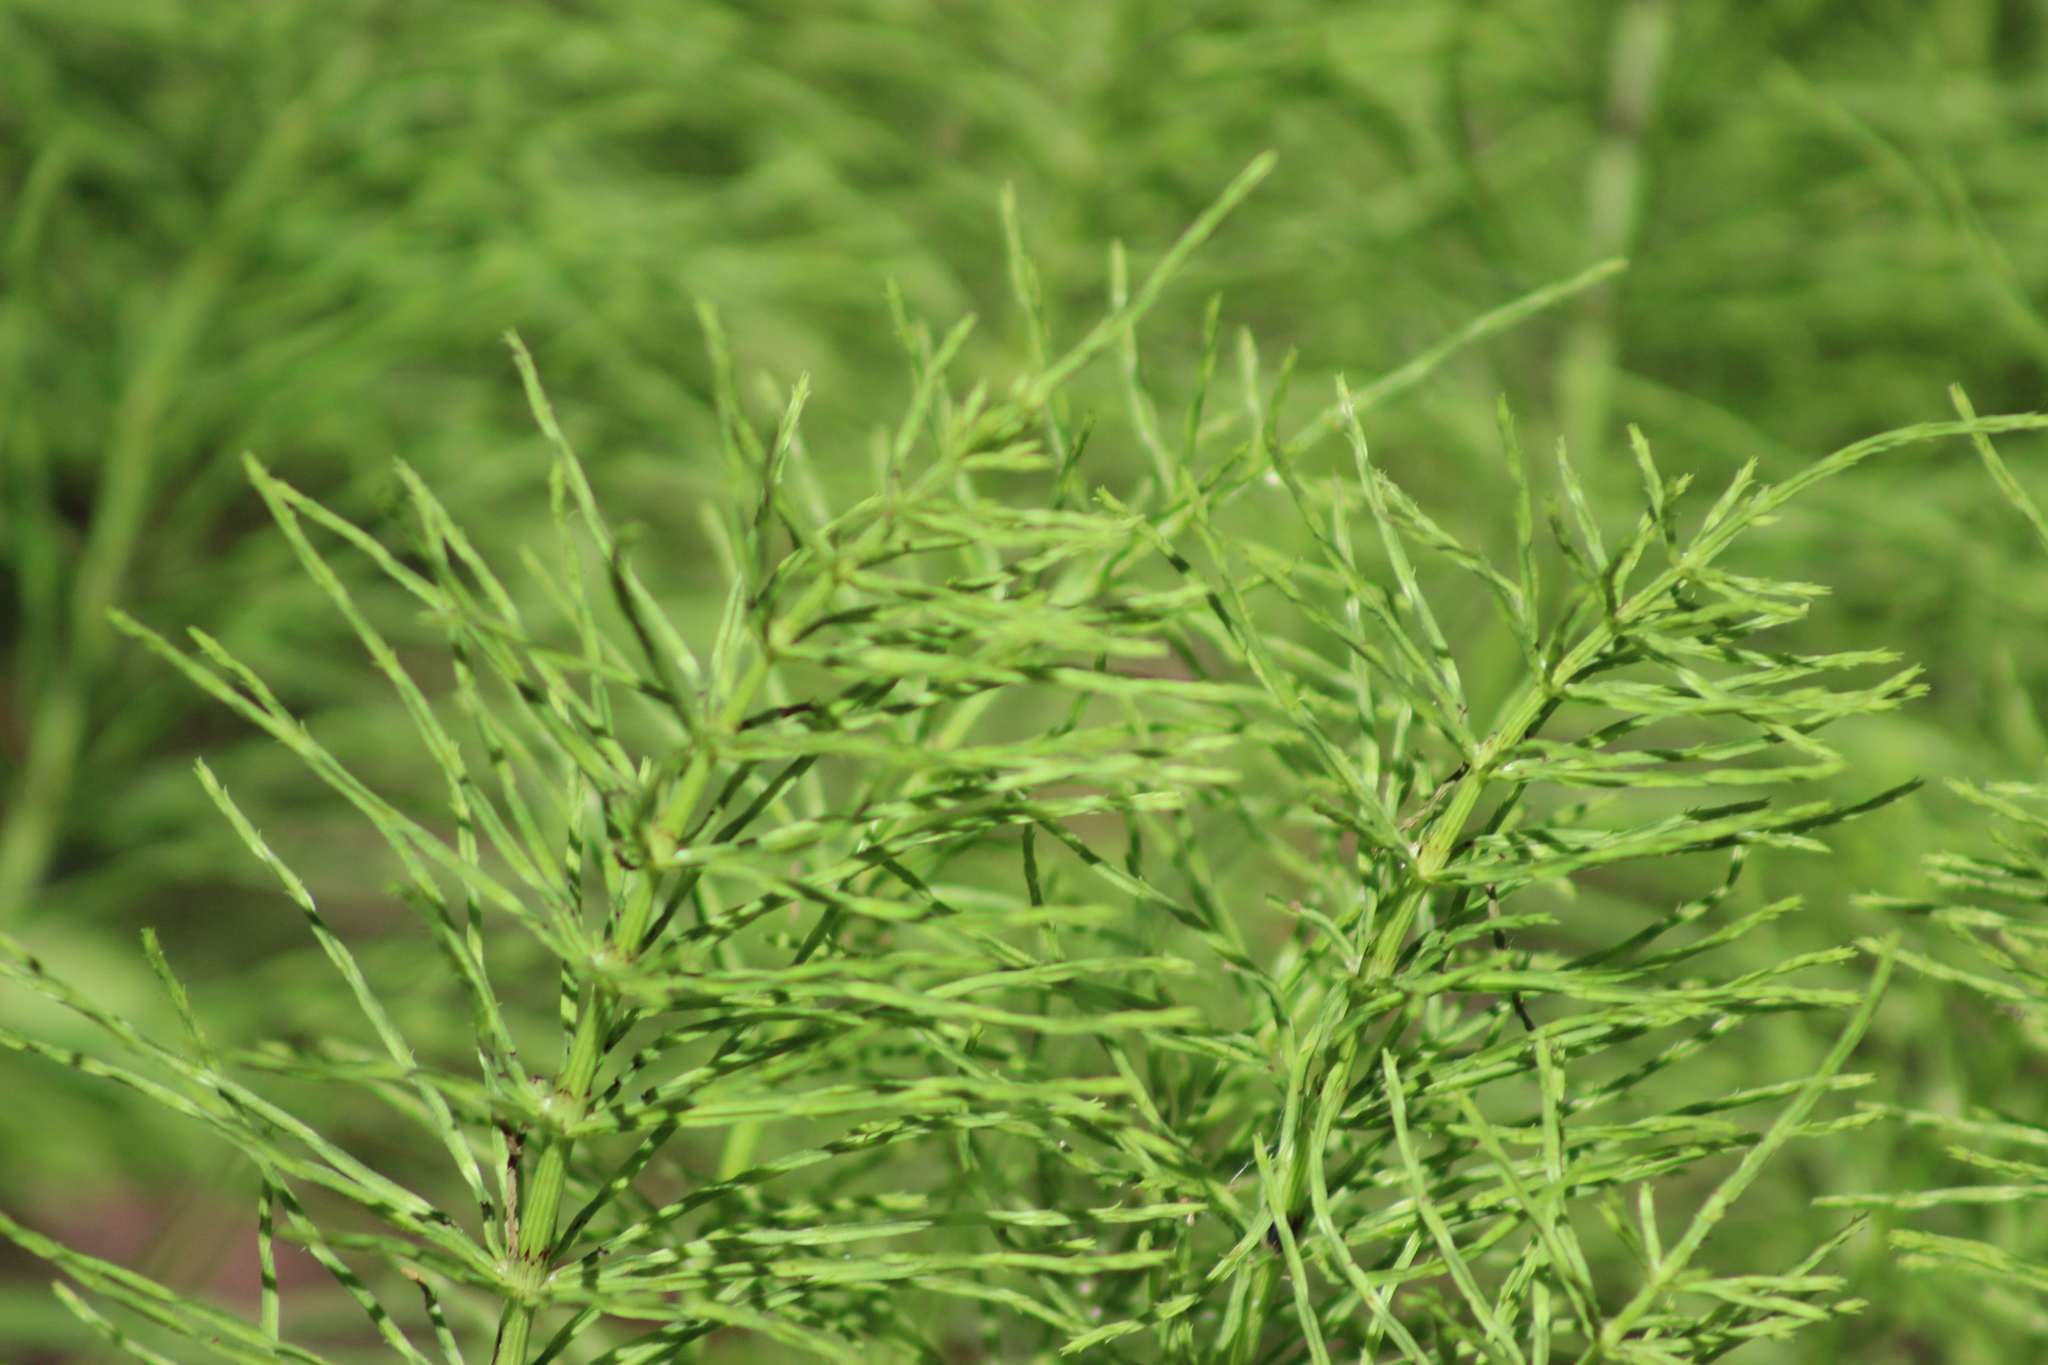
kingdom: Plantae
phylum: Tracheophyta
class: Polypodiopsida
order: Equisetales
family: Equisetaceae
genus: Equisetum
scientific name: Equisetum pratense
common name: Meadow horsetail
